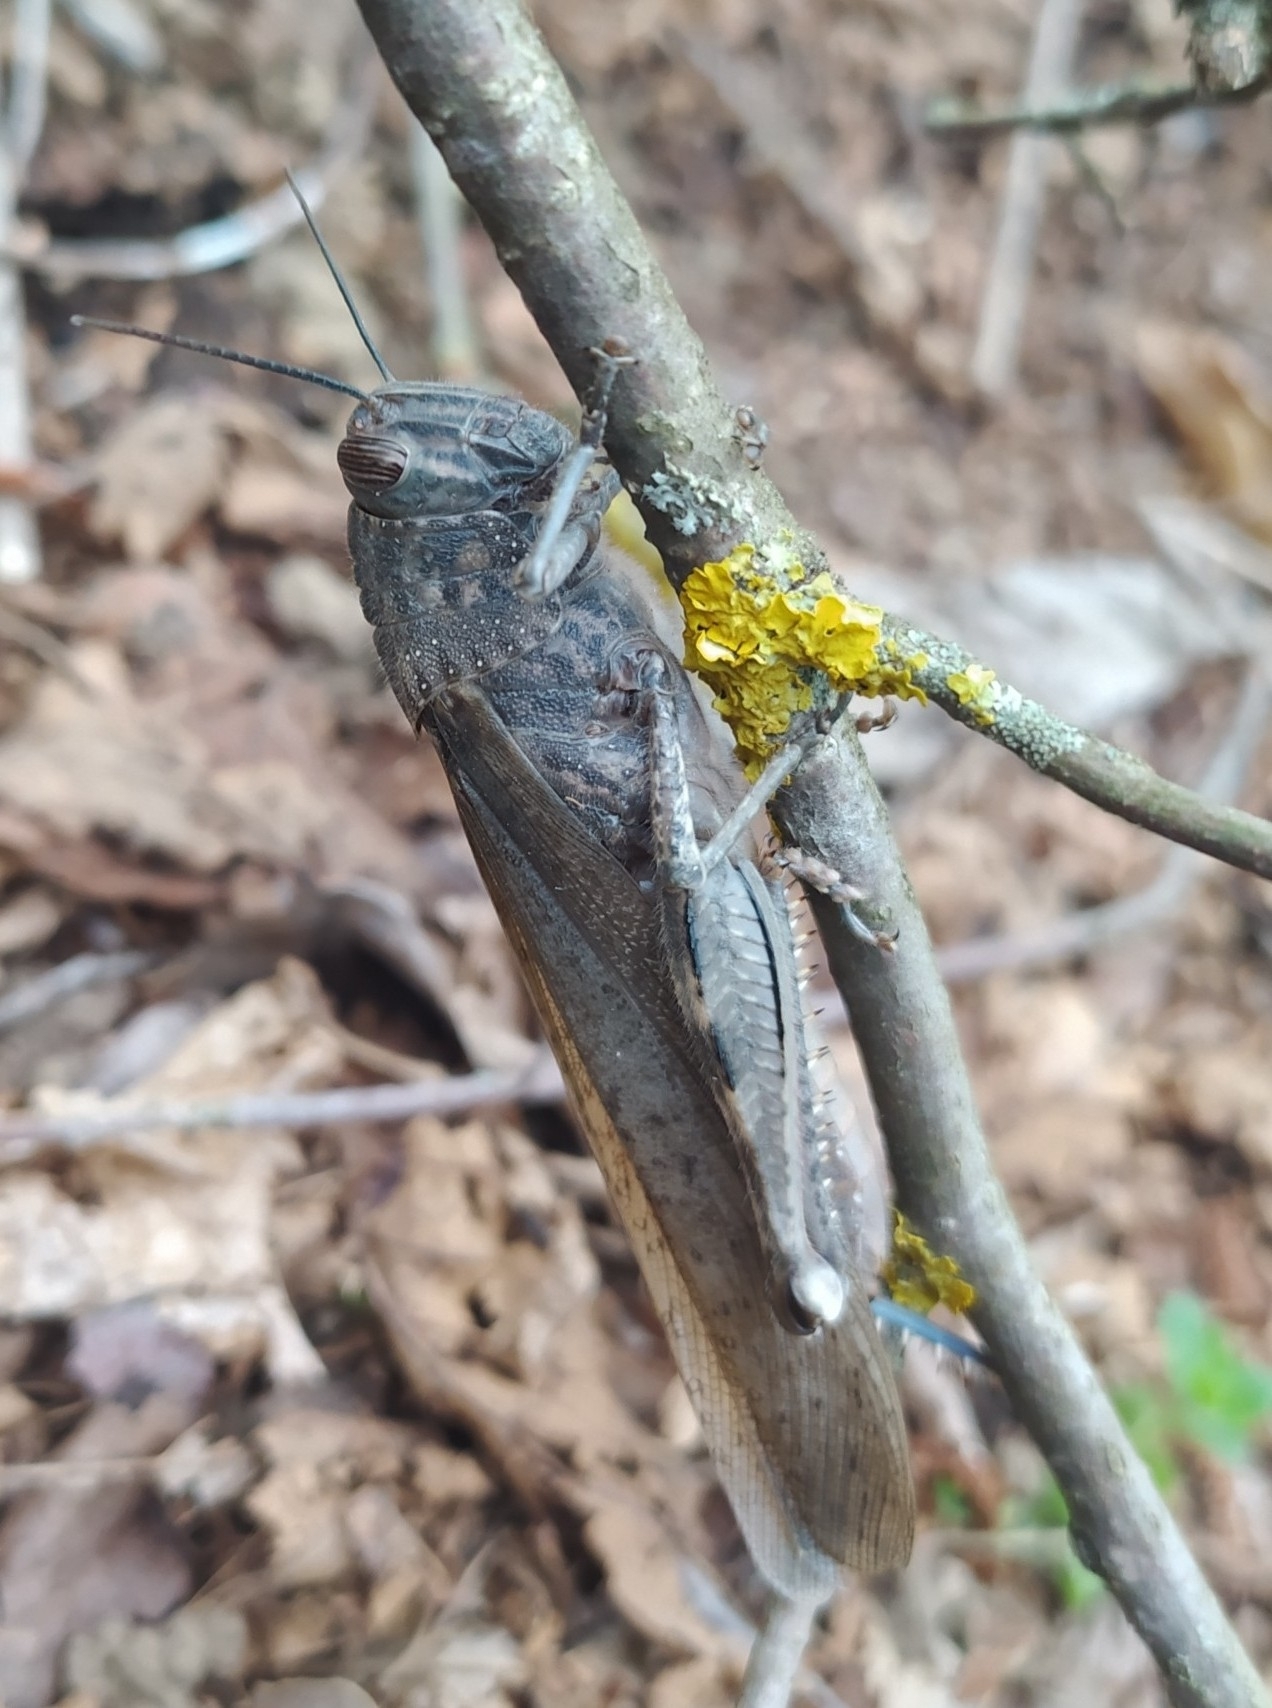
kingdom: Animalia
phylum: Arthropoda
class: Insecta
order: Orthoptera
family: Acrididae
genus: Anacridium
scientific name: Anacridium aegyptium
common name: Egyptian grasshopper
